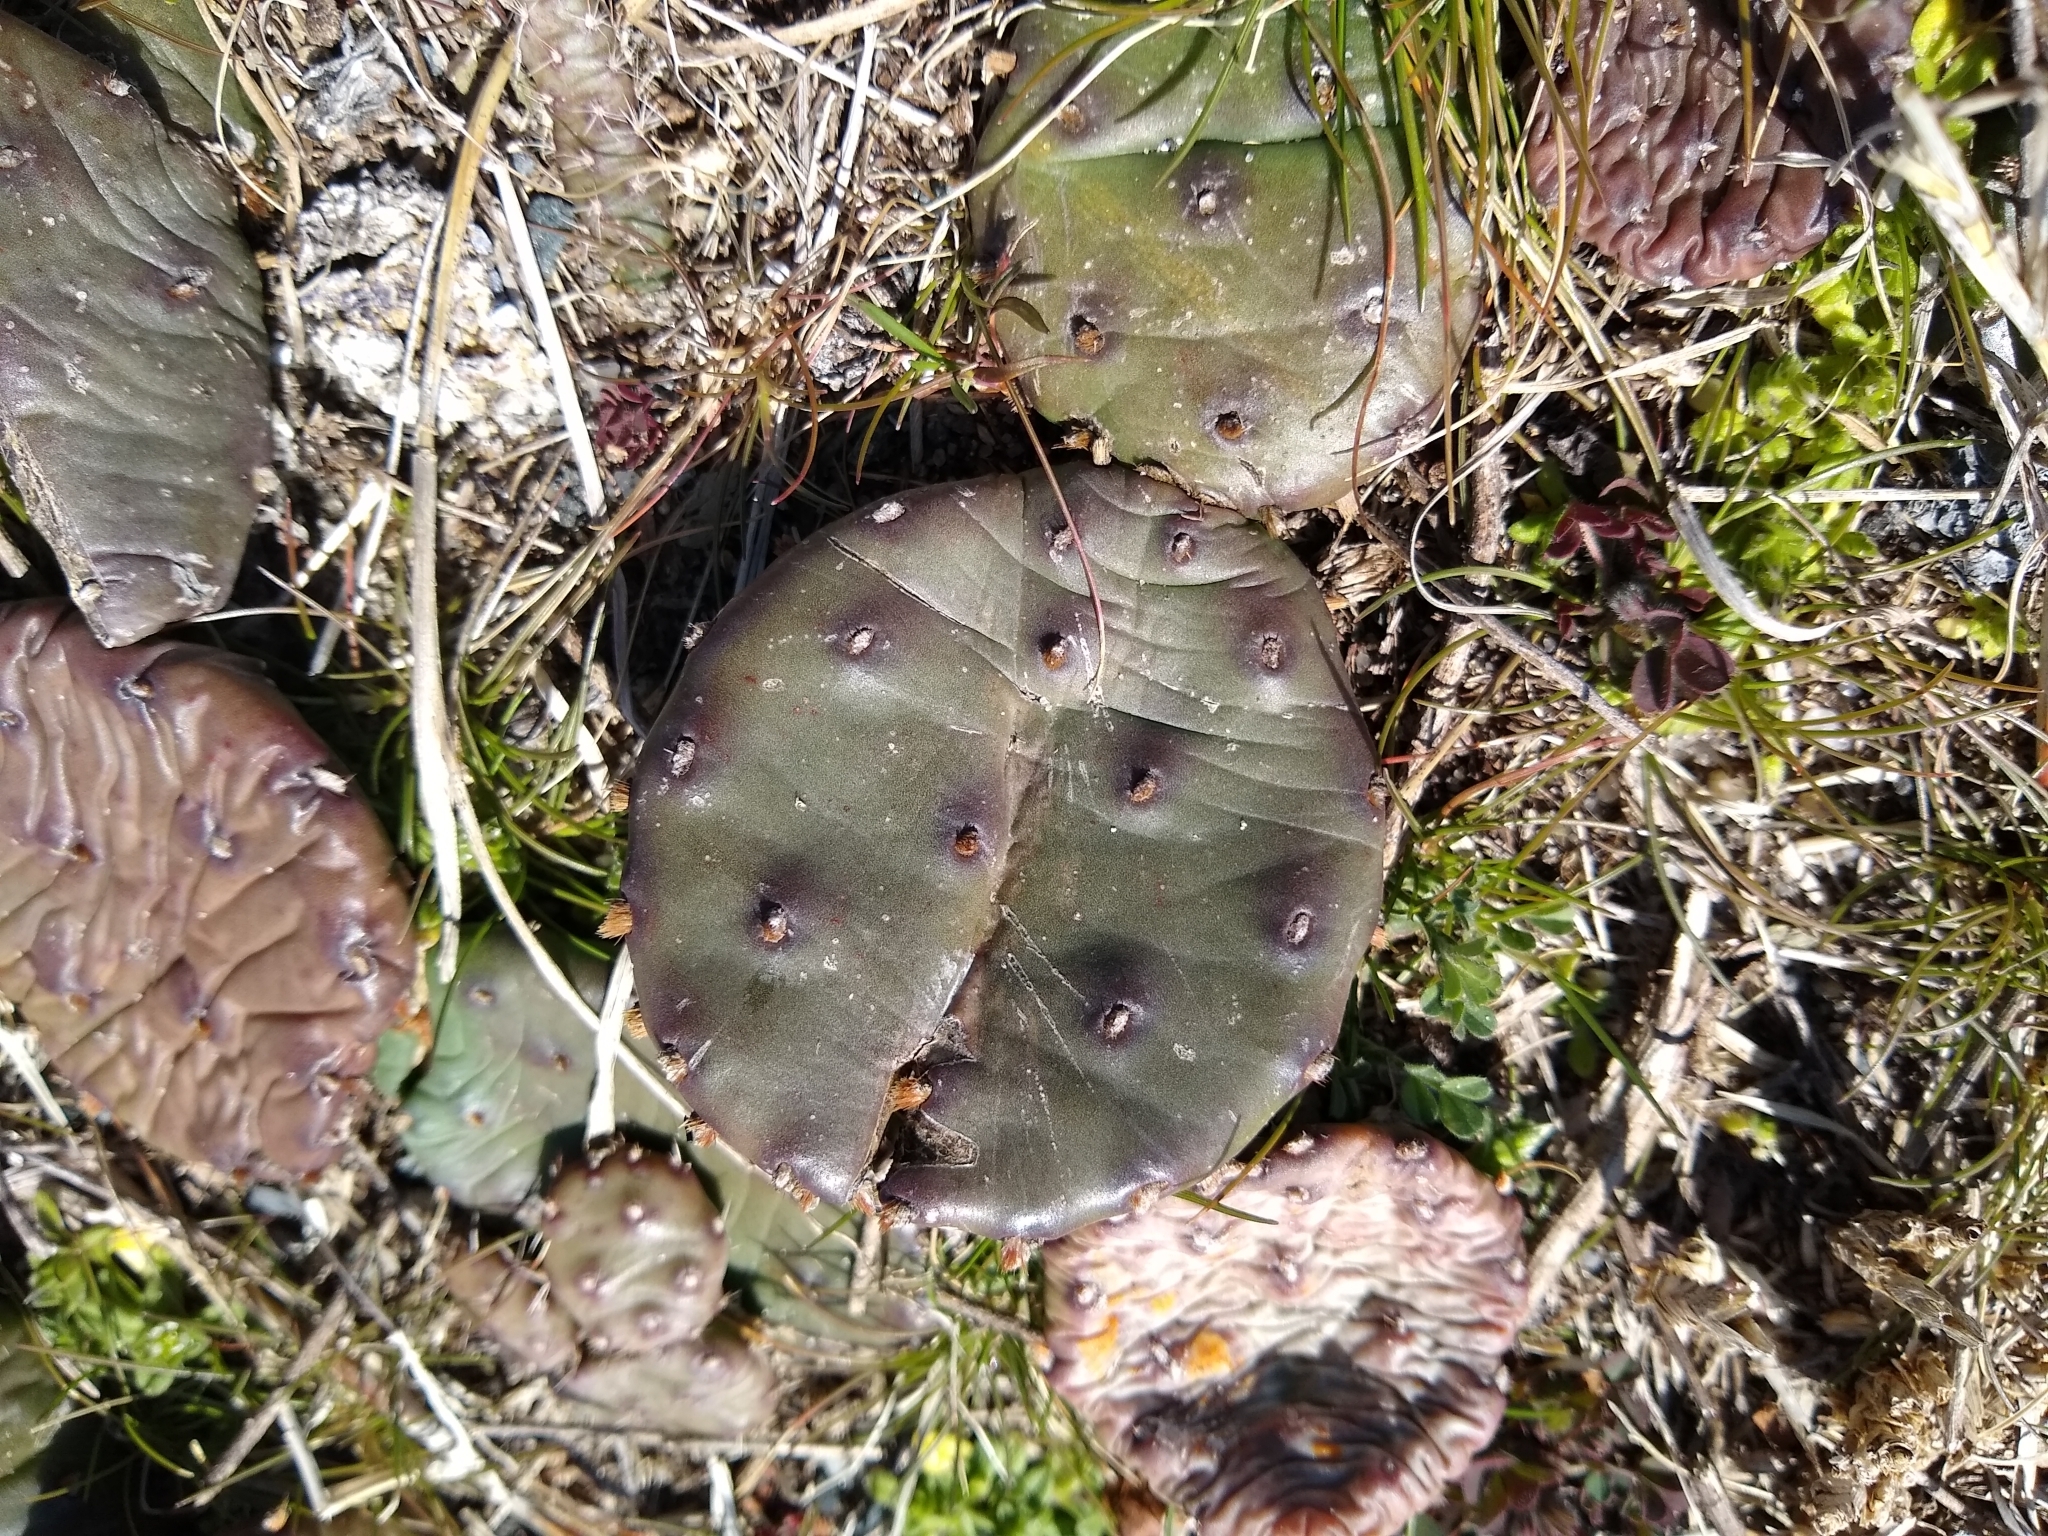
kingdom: Plantae
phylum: Tracheophyta
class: Magnoliopsida
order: Caryophyllales
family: Cactaceae
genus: Opuntia
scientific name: Opuntia humifusa
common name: Eastern prickly-pear
